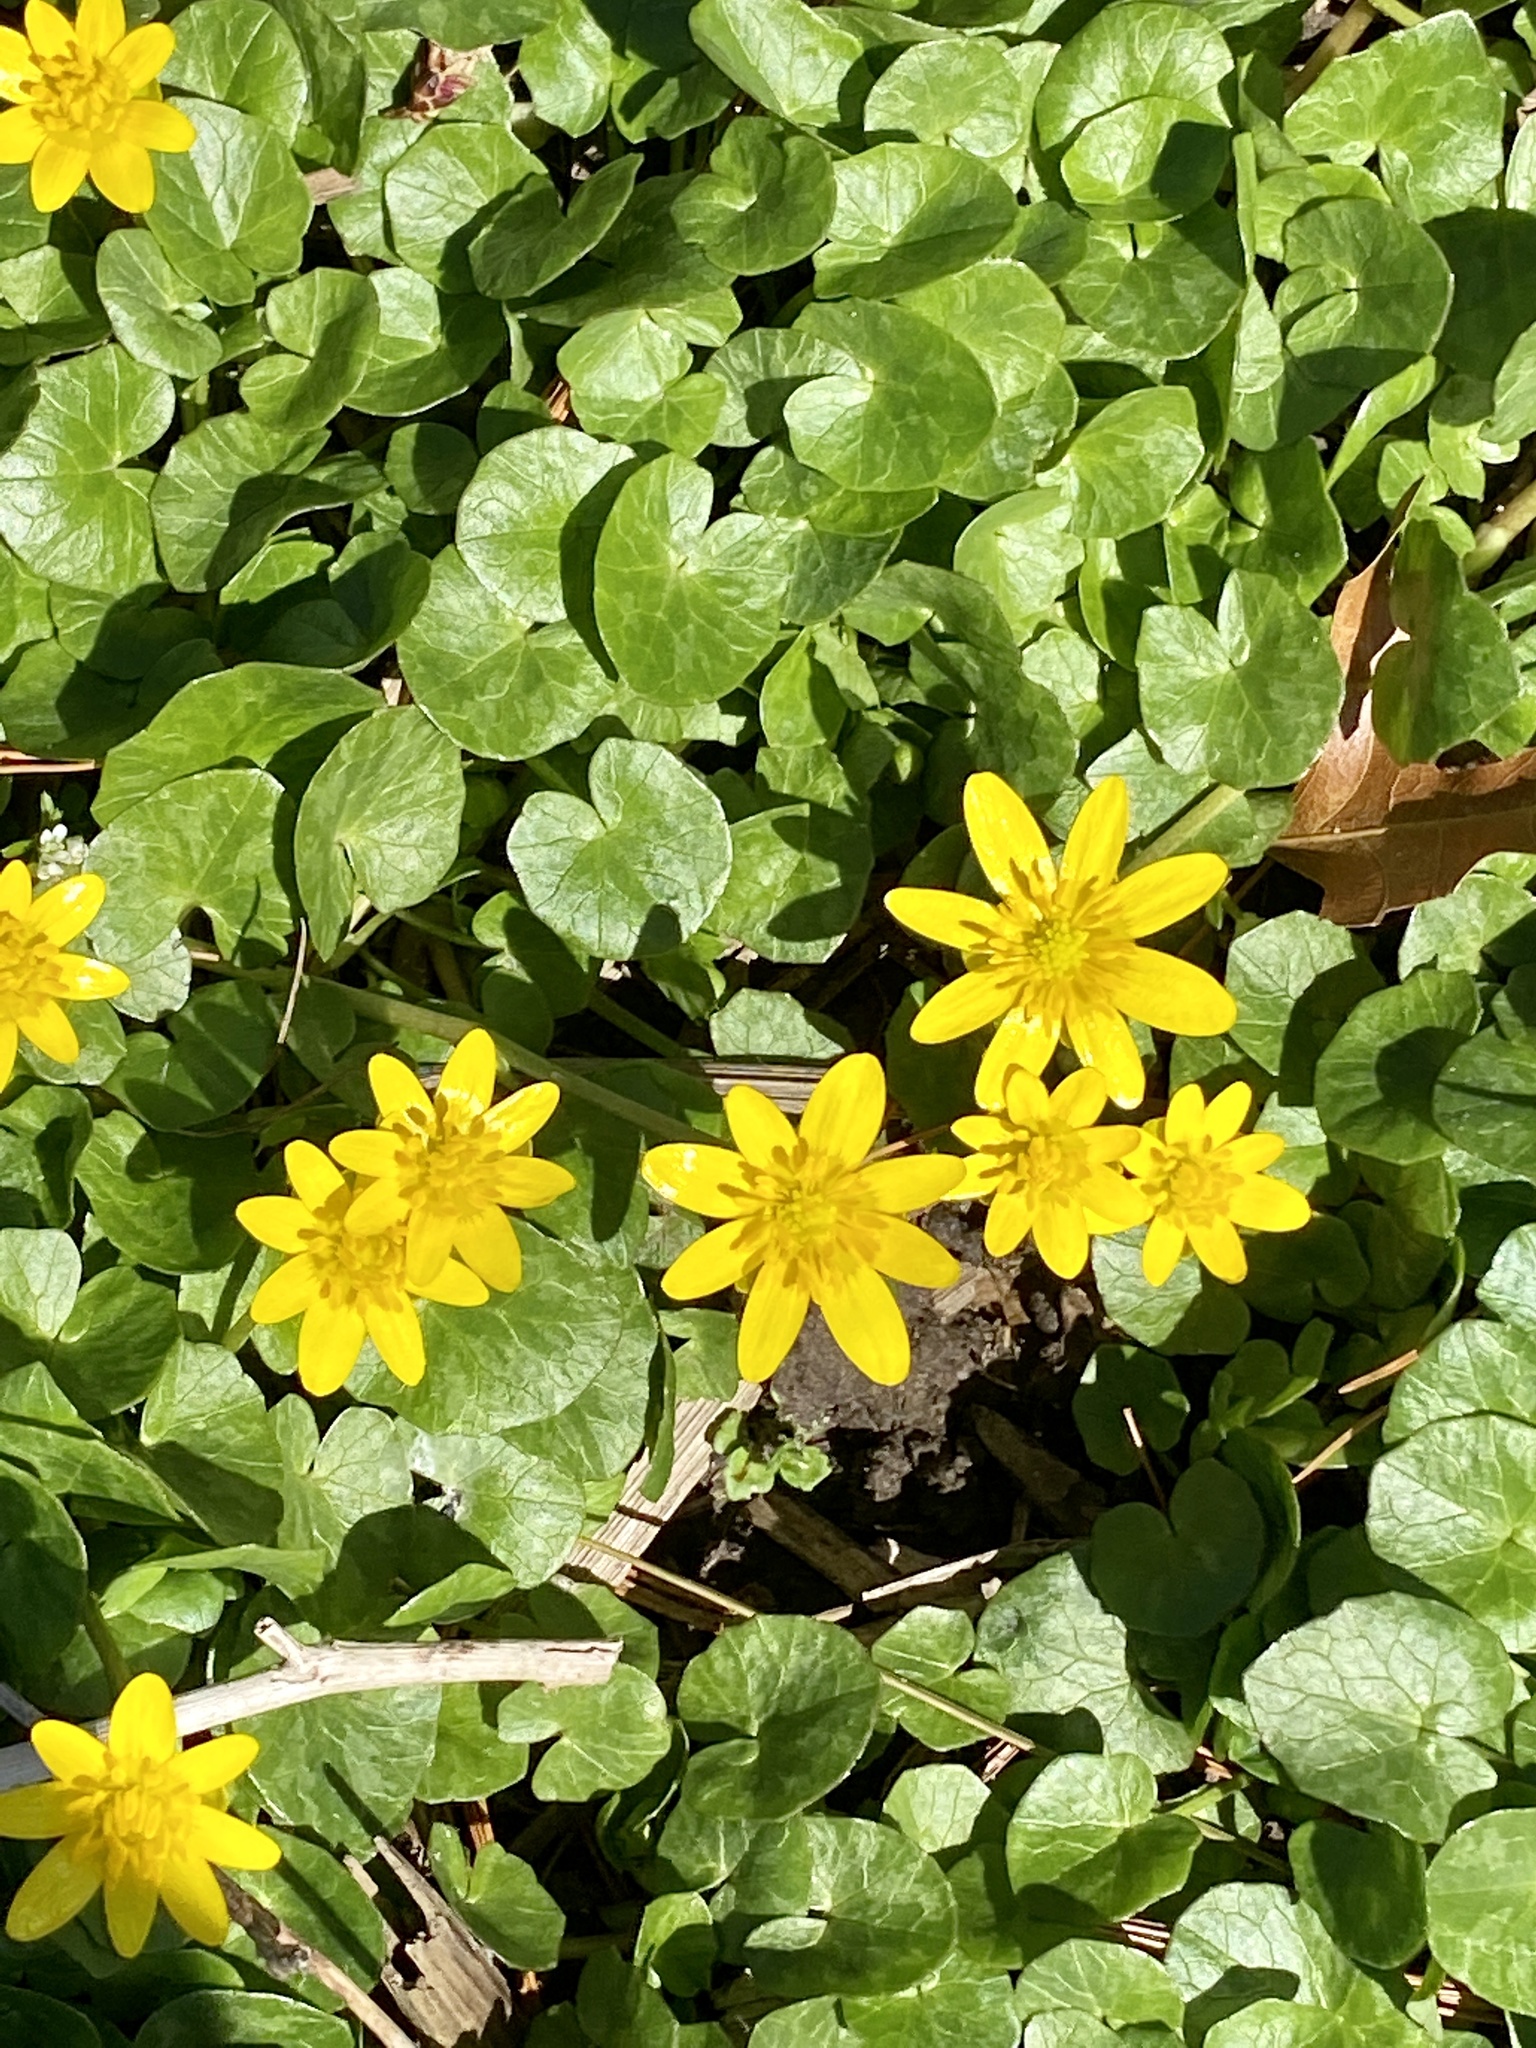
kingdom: Plantae
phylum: Tracheophyta
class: Magnoliopsida
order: Ranunculales
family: Ranunculaceae
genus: Ficaria
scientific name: Ficaria verna
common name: Lesser celandine
